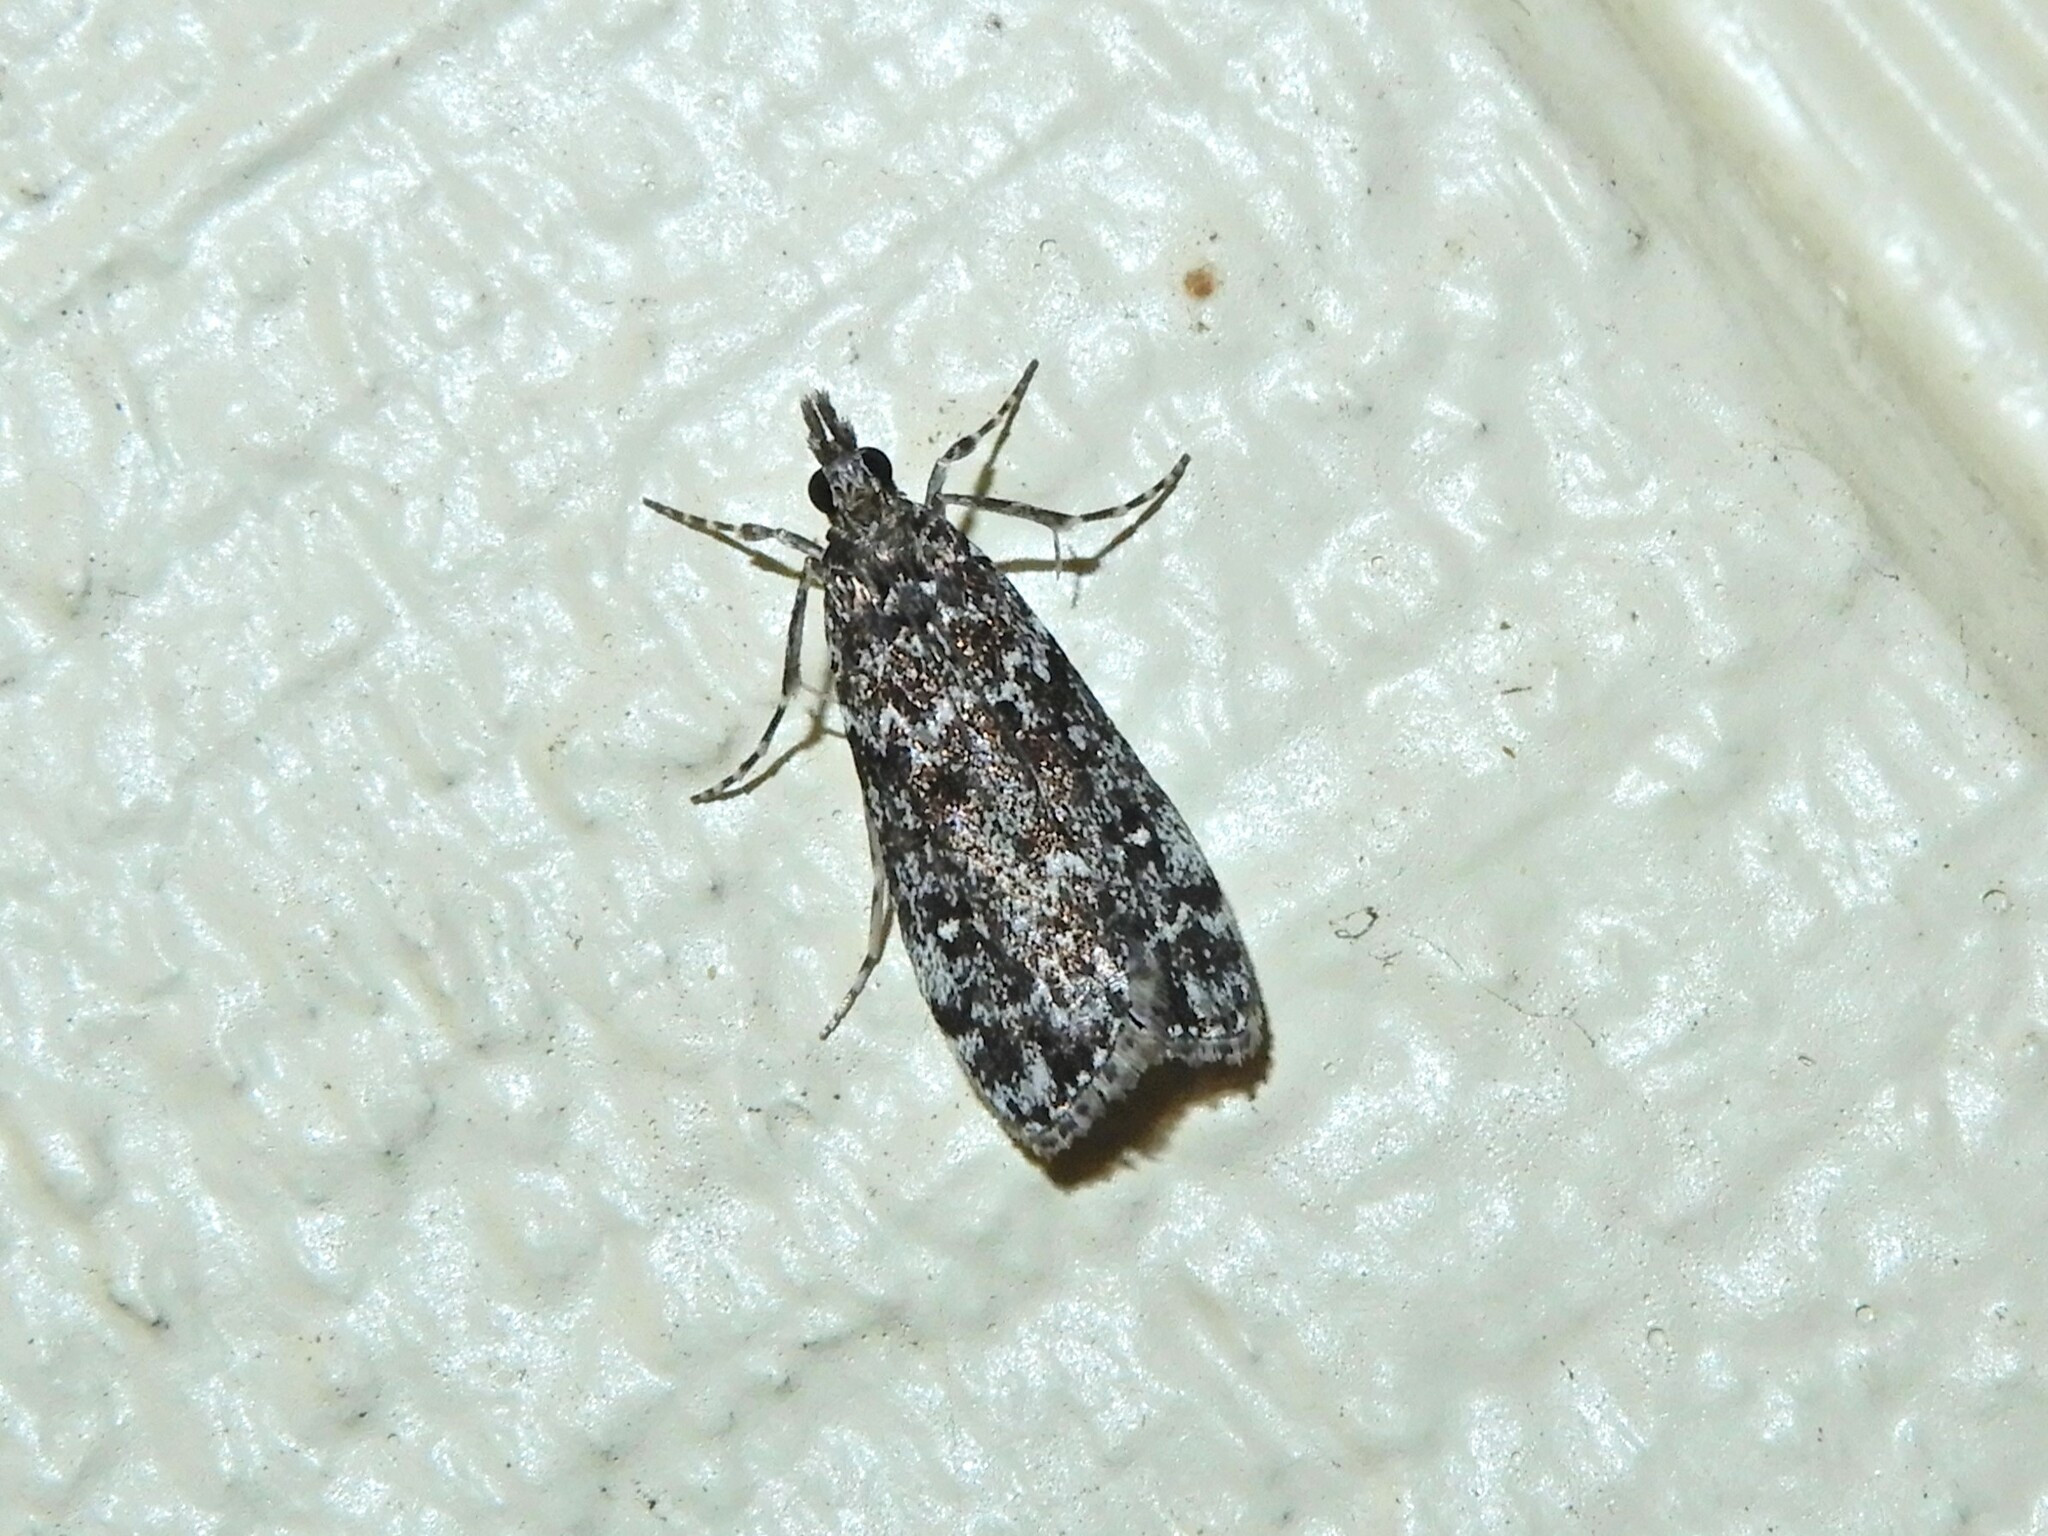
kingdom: Animalia
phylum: Arthropoda
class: Insecta
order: Lepidoptera
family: Crambidae
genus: Eudonia
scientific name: Eudonia philerga
